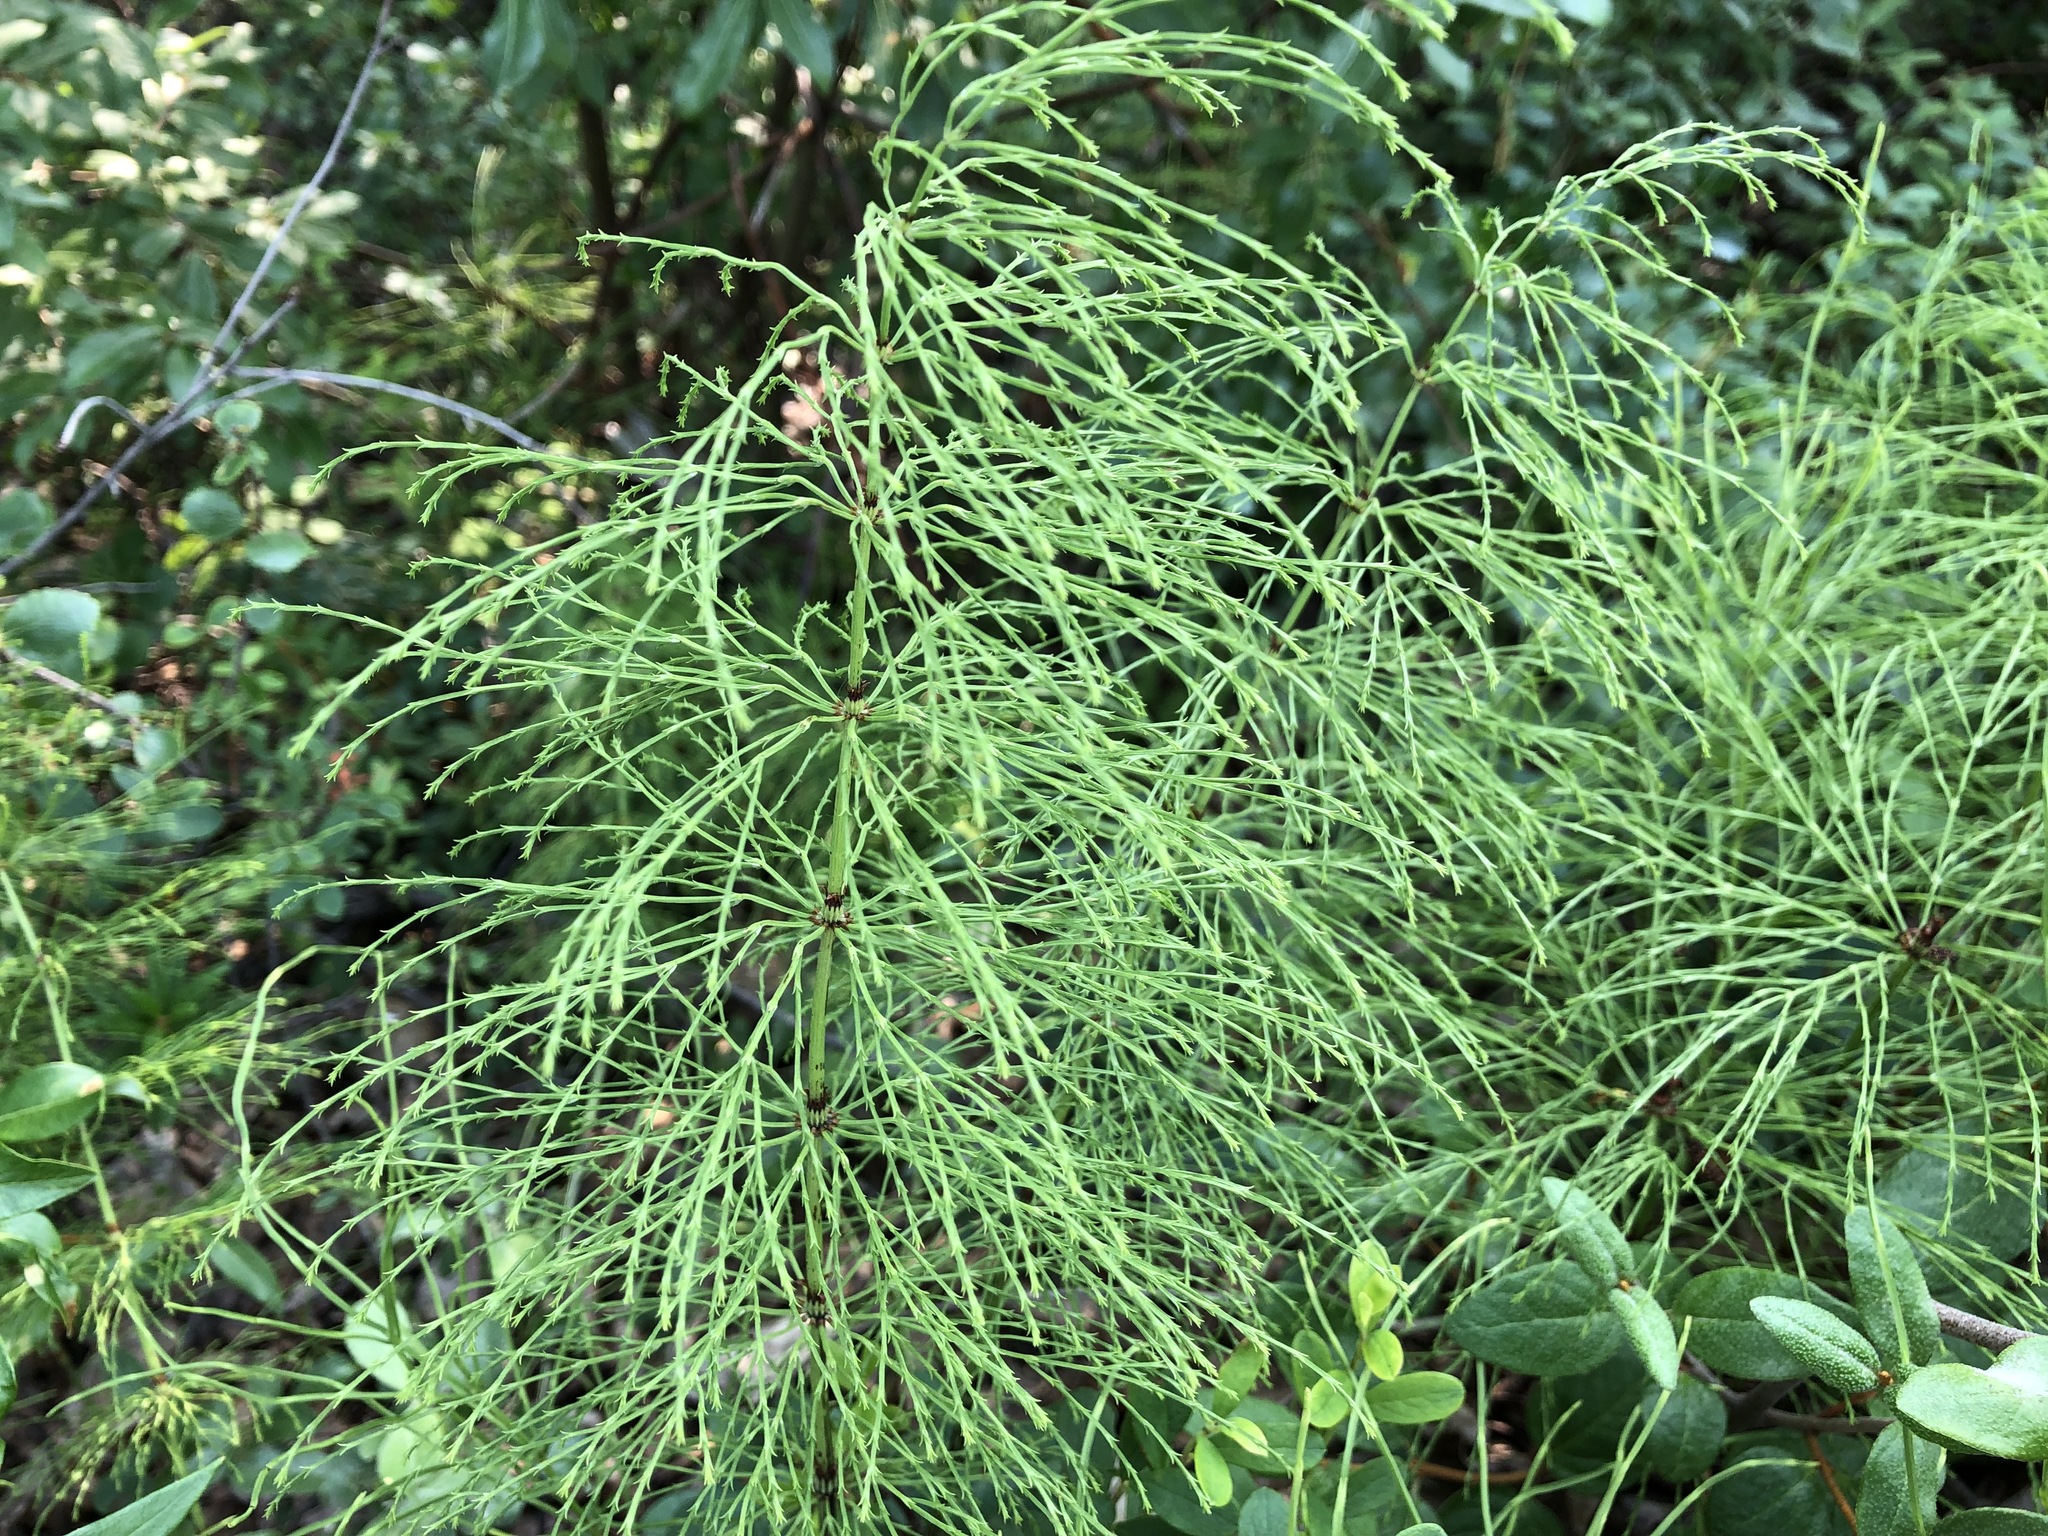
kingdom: Plantae
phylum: Tracheophyta
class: Polypodiopsida
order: Equisetales
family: Equisetaceae
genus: Equisetum
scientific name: Equisetum sylvaticum
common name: Wood horsetail
